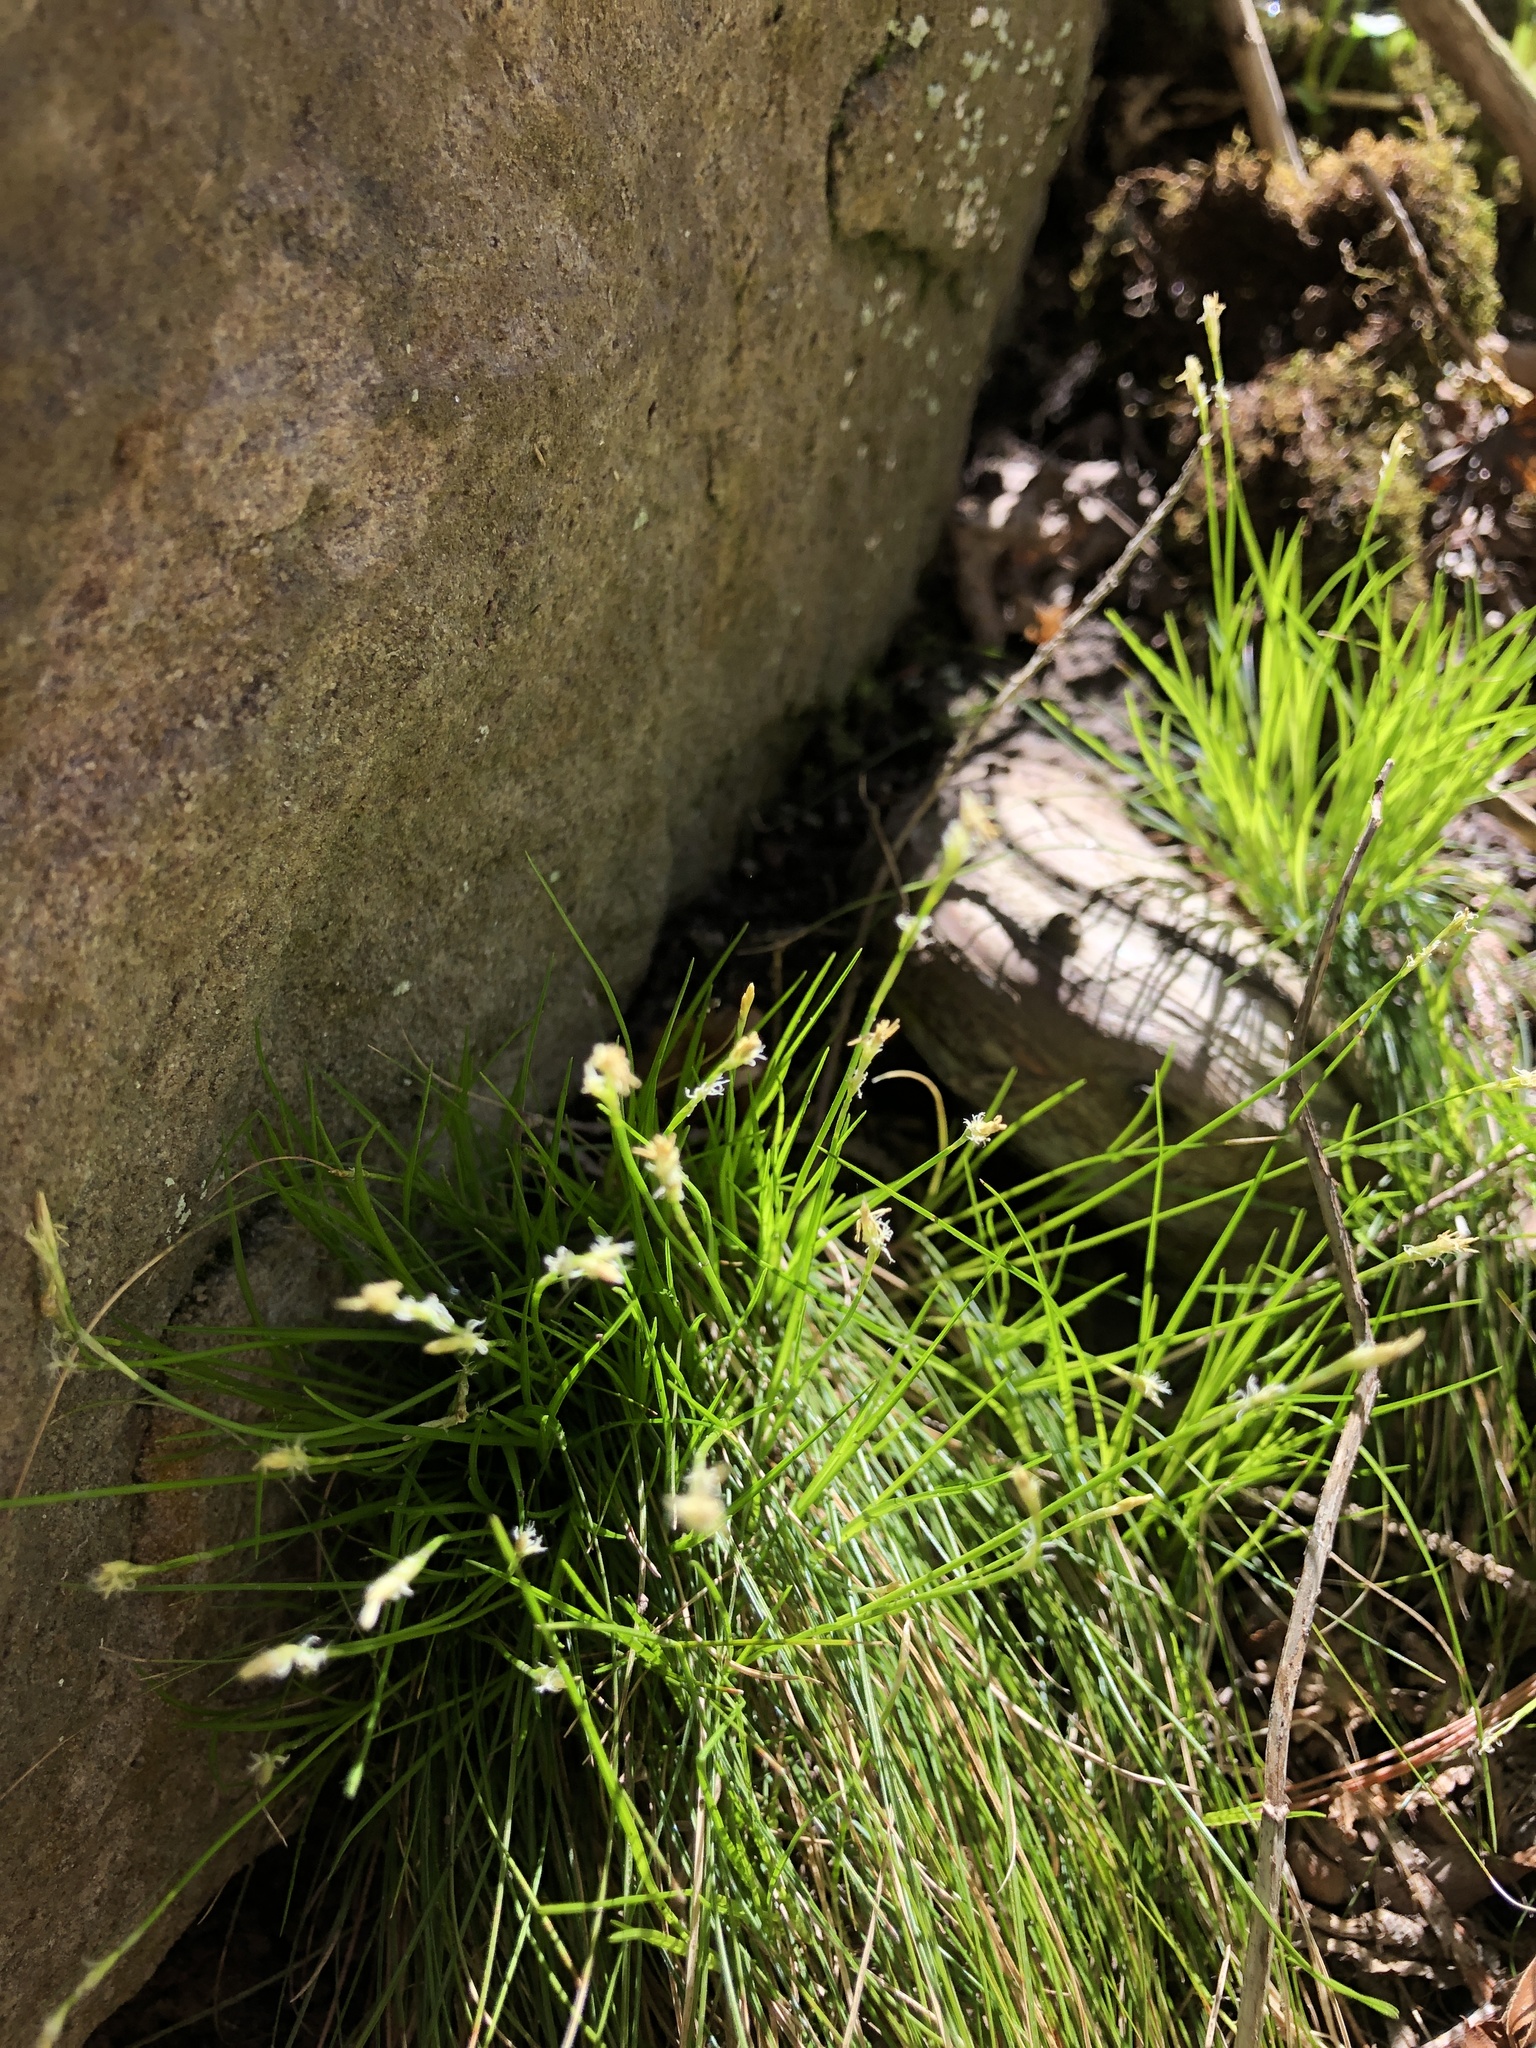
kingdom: Plantae
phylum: Tracheophyta
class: Liliopsida
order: Poales
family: Cyperaceae
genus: Carex
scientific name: Carex eburnea
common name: Bristle-leaved sedge
